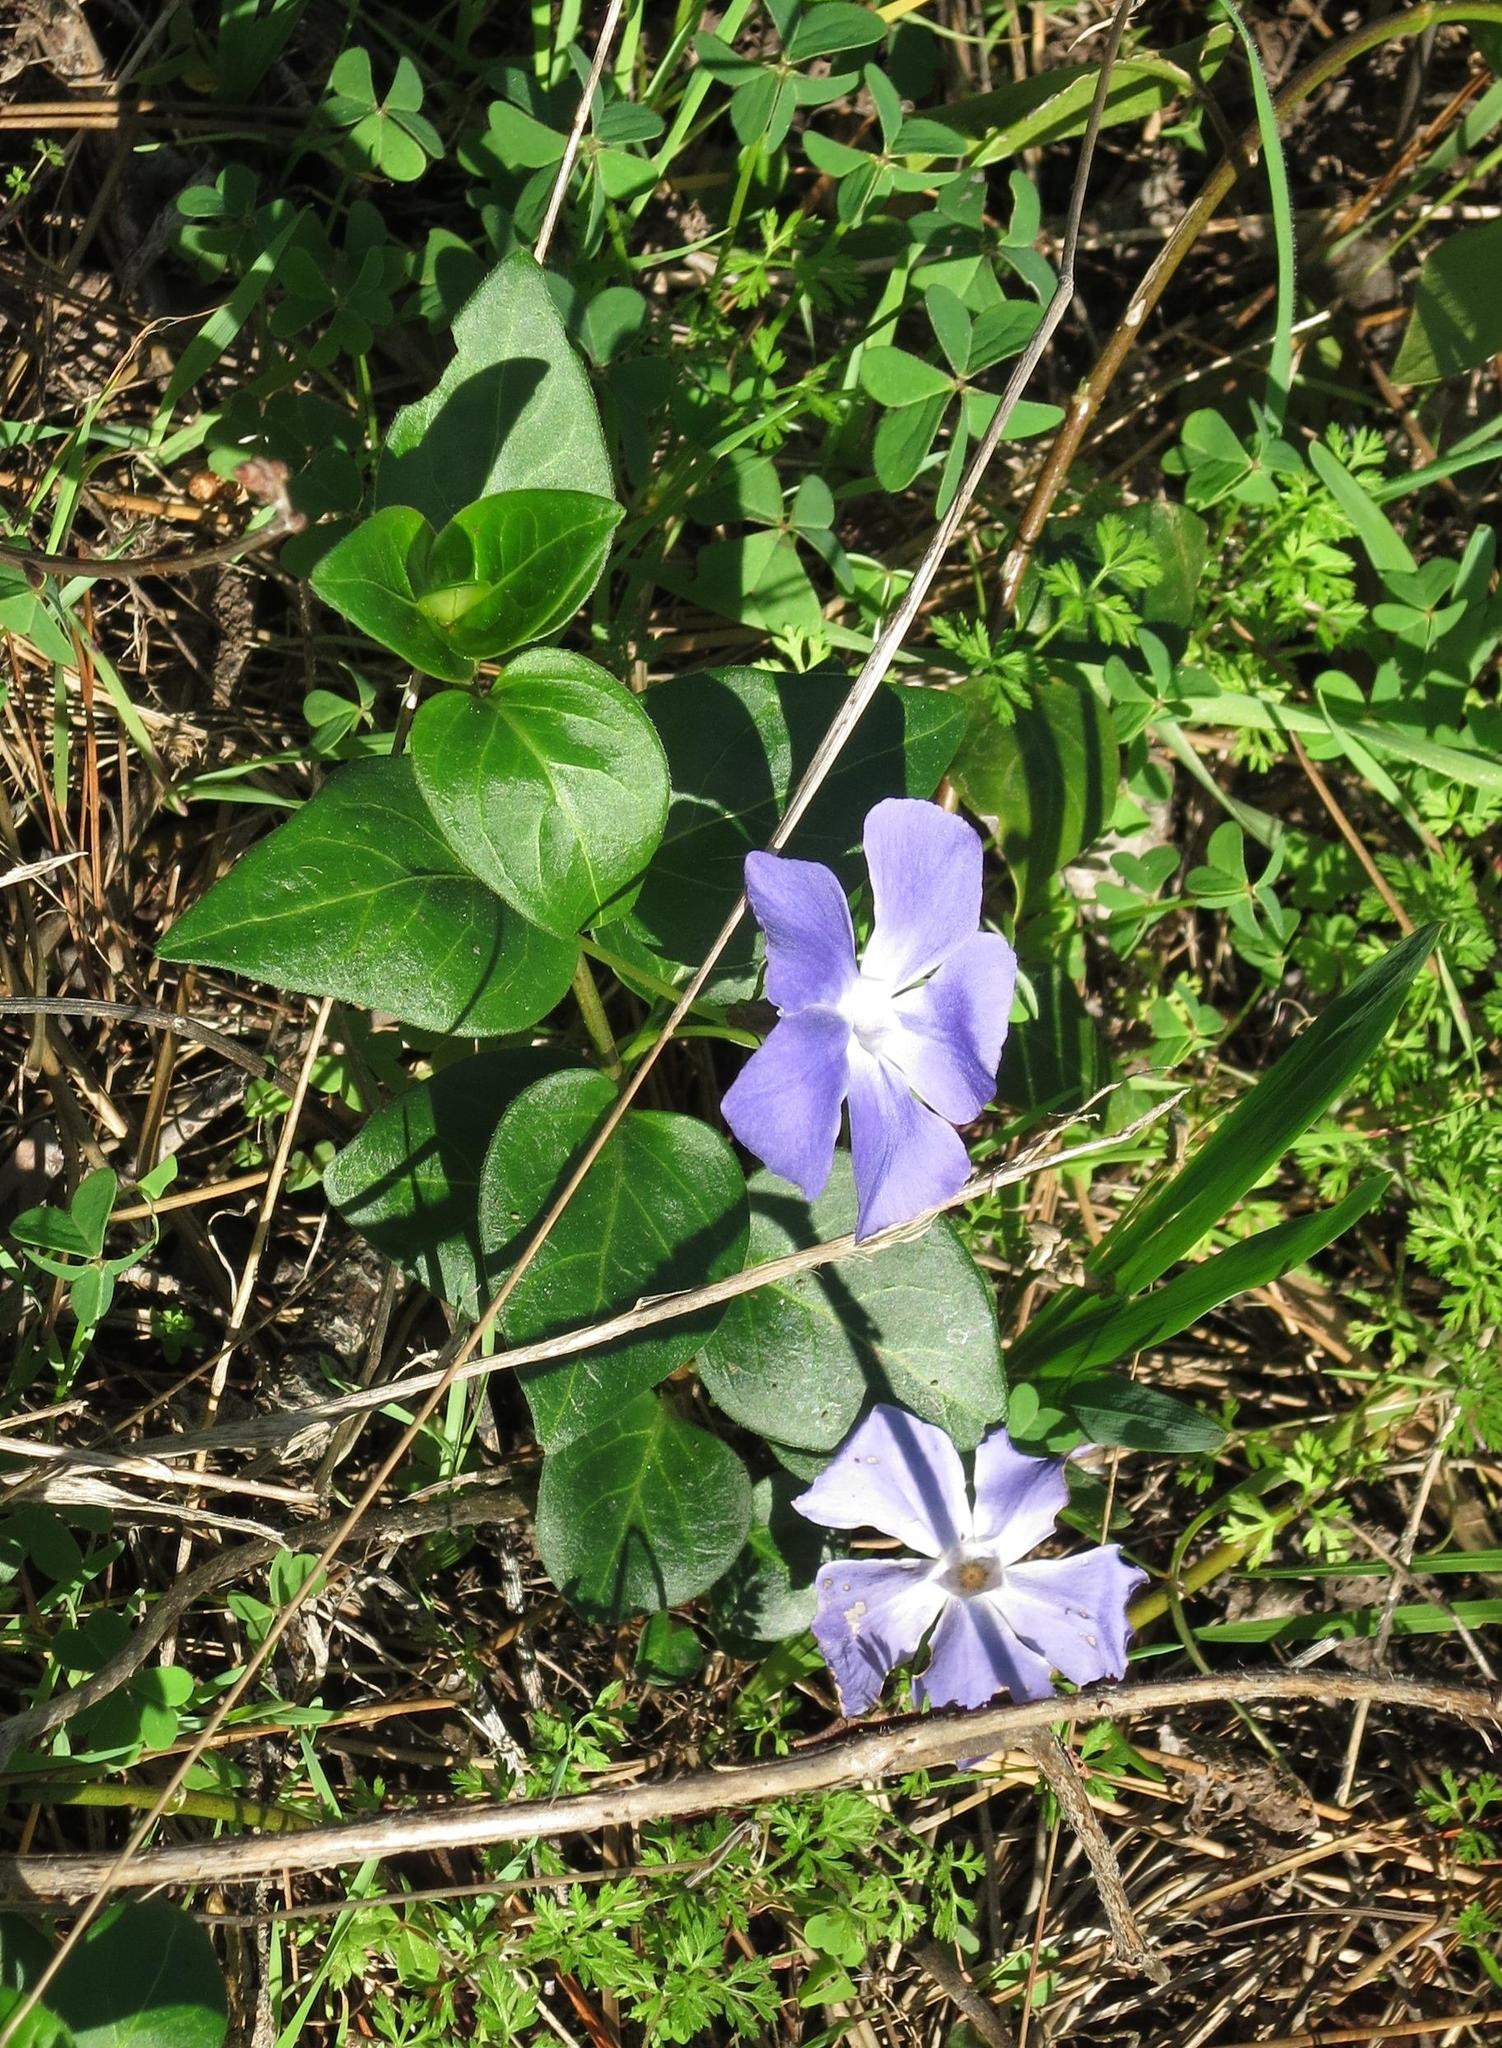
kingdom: Plantae
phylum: Tracheophyta
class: Magnoliopsida
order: Gentianales
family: Apocynaceae
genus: Vinca
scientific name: Vinca major
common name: Greater periwinkle
